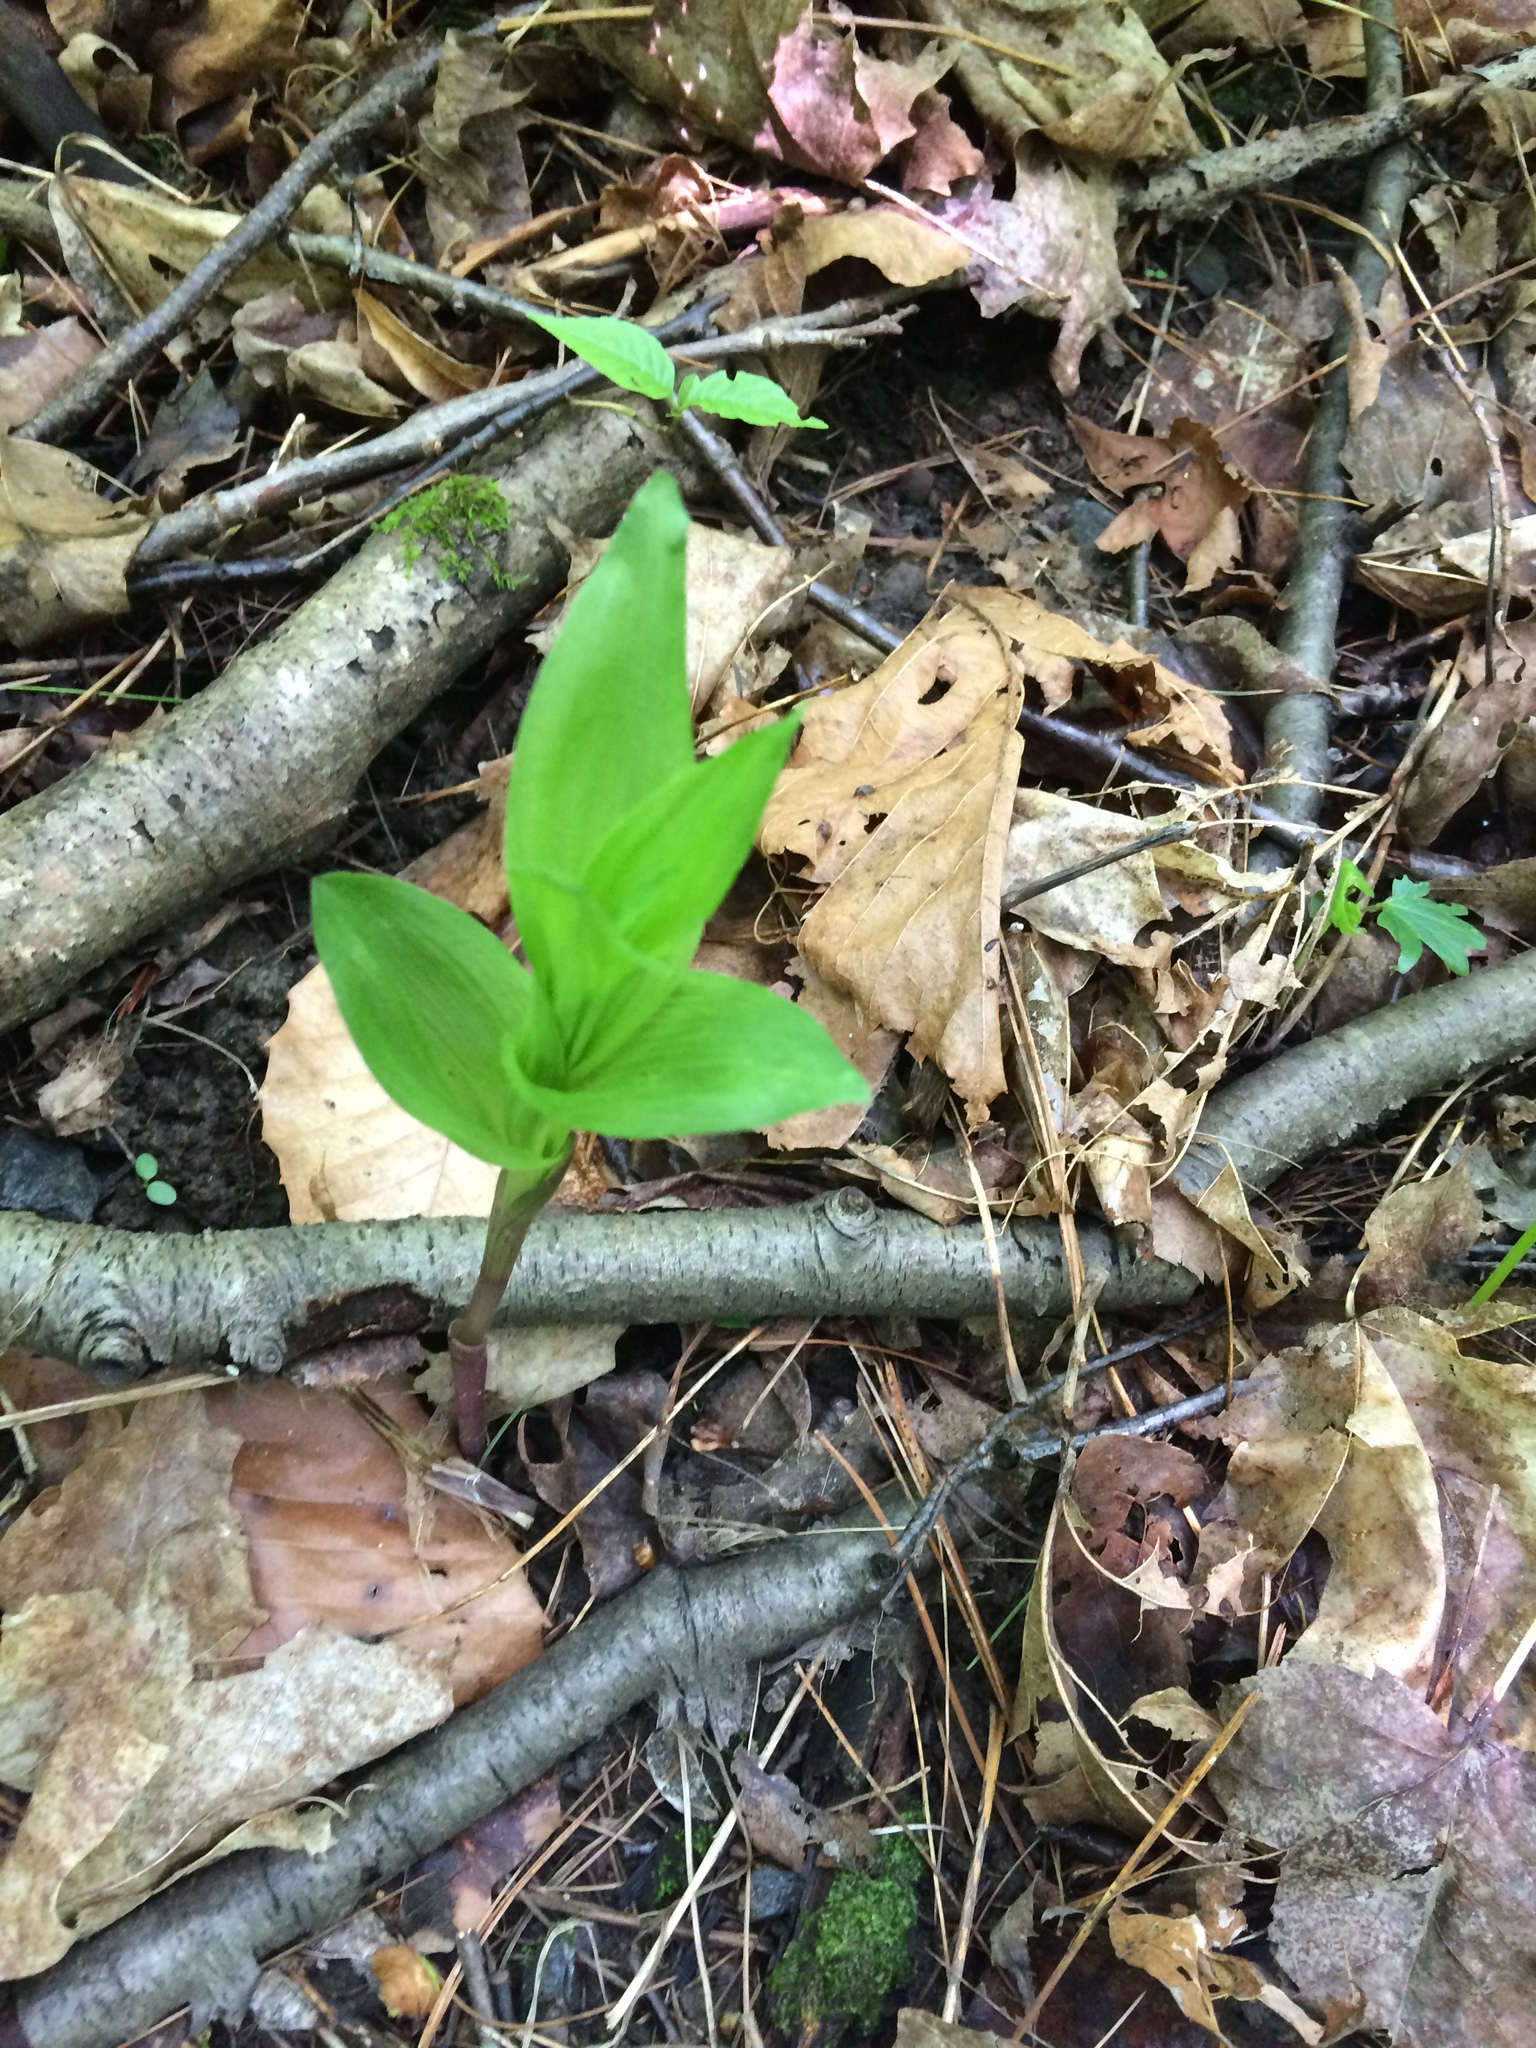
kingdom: Plantae
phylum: Tracheophyta
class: Liliopsida
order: Asparagales
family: Orchidaceae
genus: Epipactis
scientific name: Epipactis helleborine
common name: Broad-leaved helleborine
